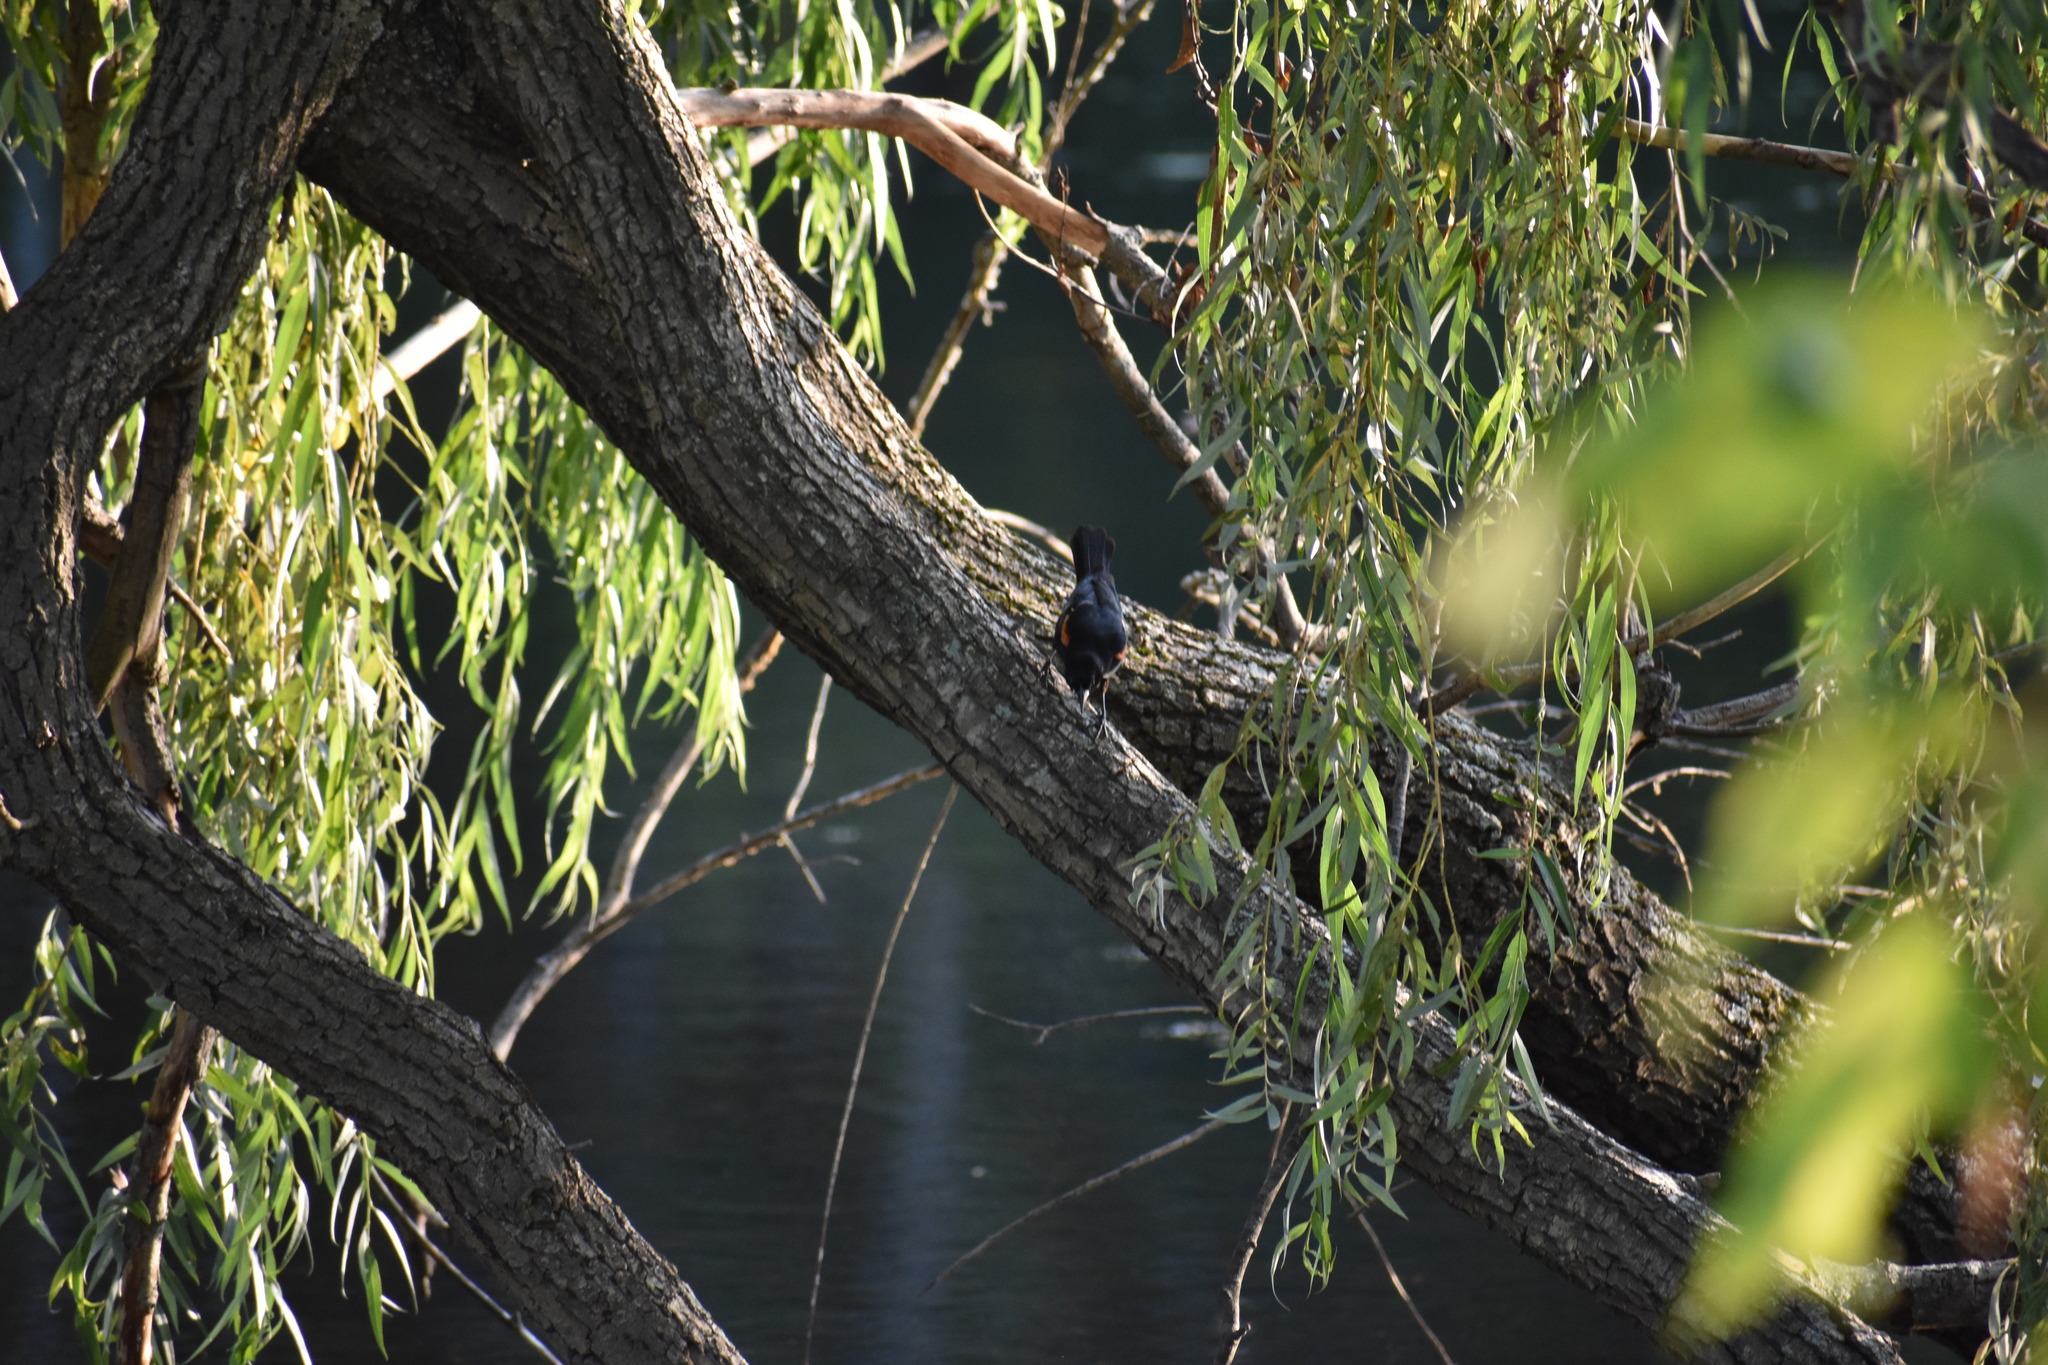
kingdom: Animalia
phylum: Chordata
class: Aves
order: Passeriformes
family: Icteridae
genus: Agelaius
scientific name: Agelaius phoeniceus
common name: Red-winged blackbird
